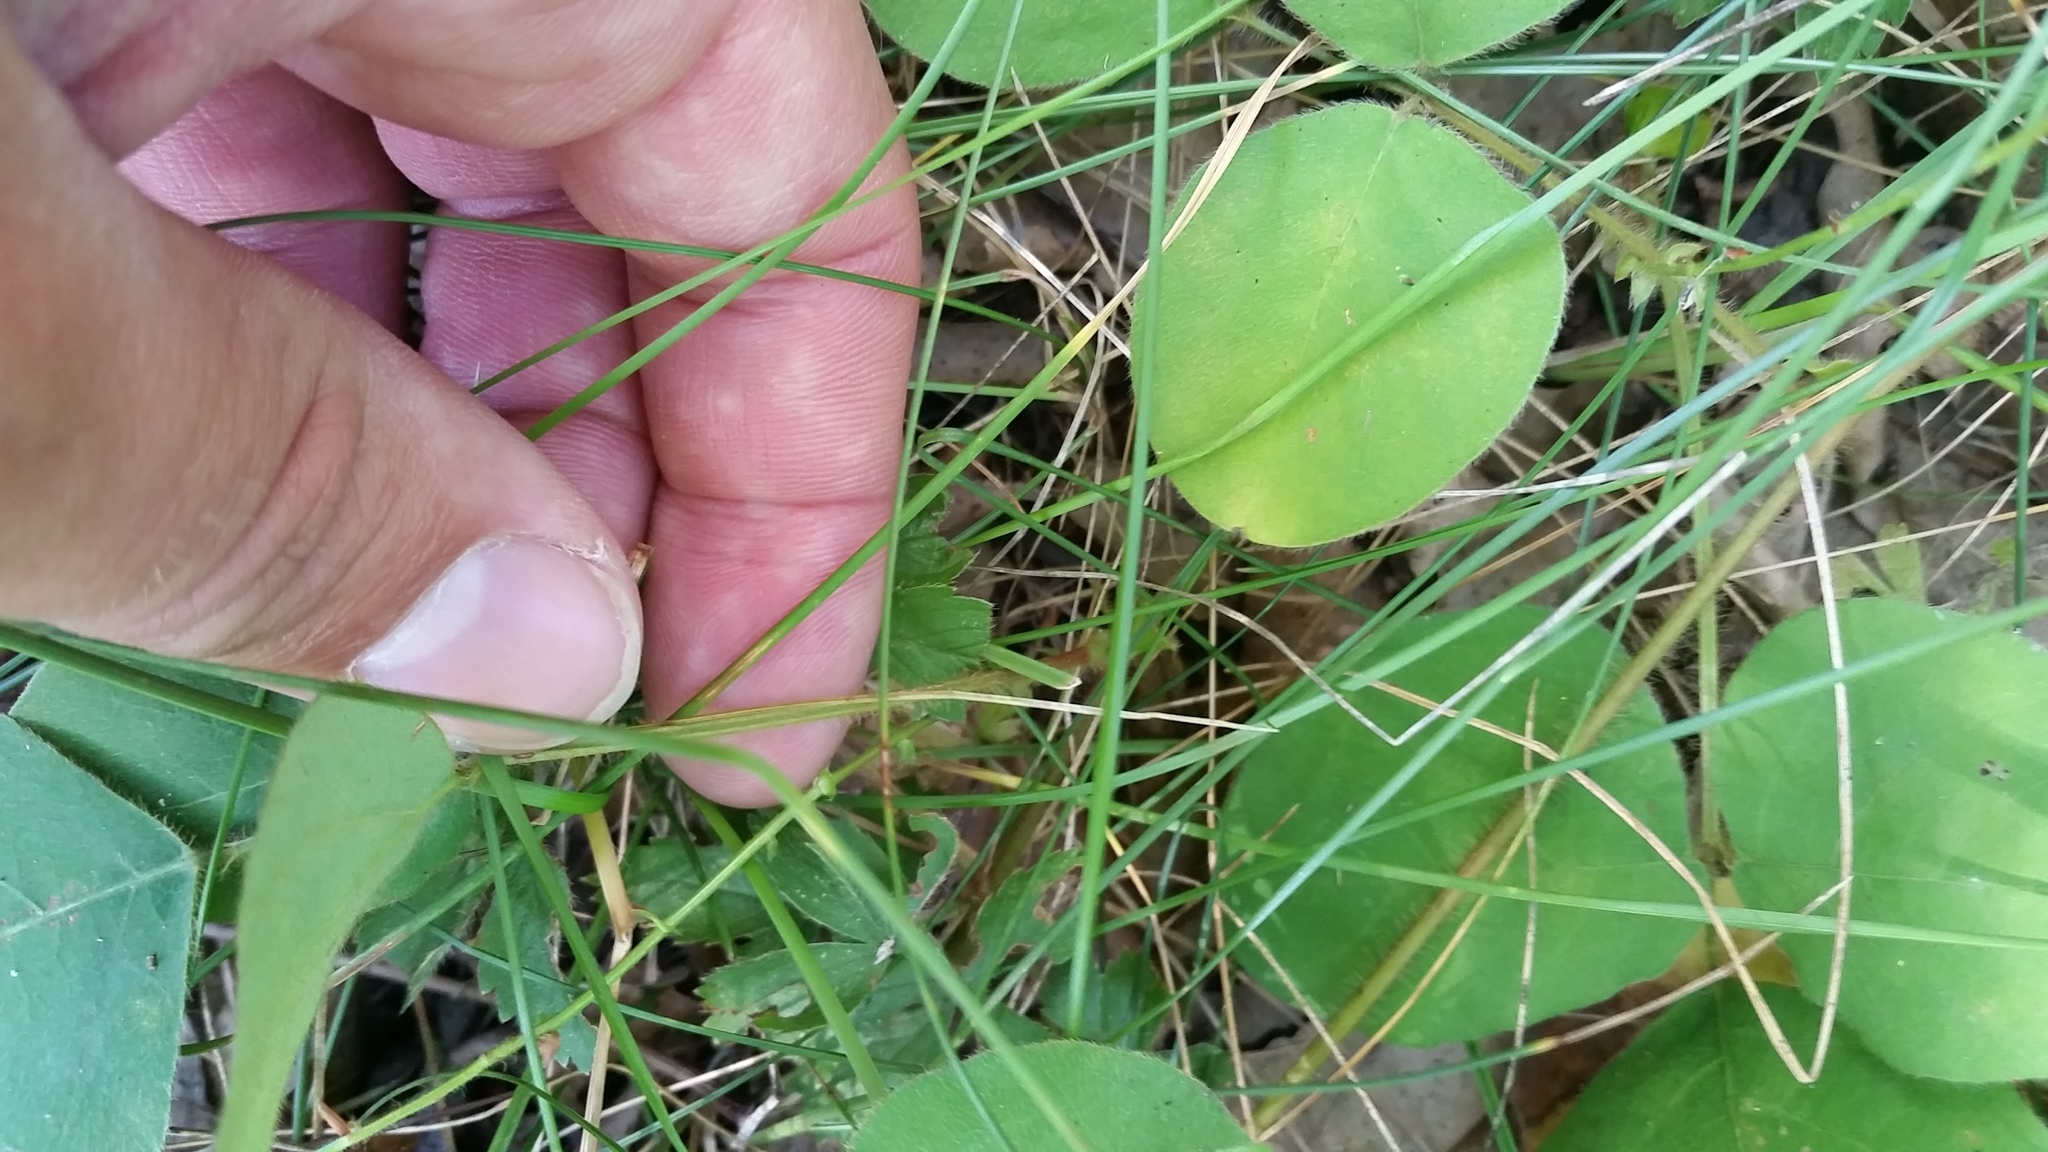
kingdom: Plantae
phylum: Tracheophyta
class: Magnoliopsida
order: Fabales
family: Fabaceae
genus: Desmodium
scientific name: Desmodium rotundifolium
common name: Dollarleaf
